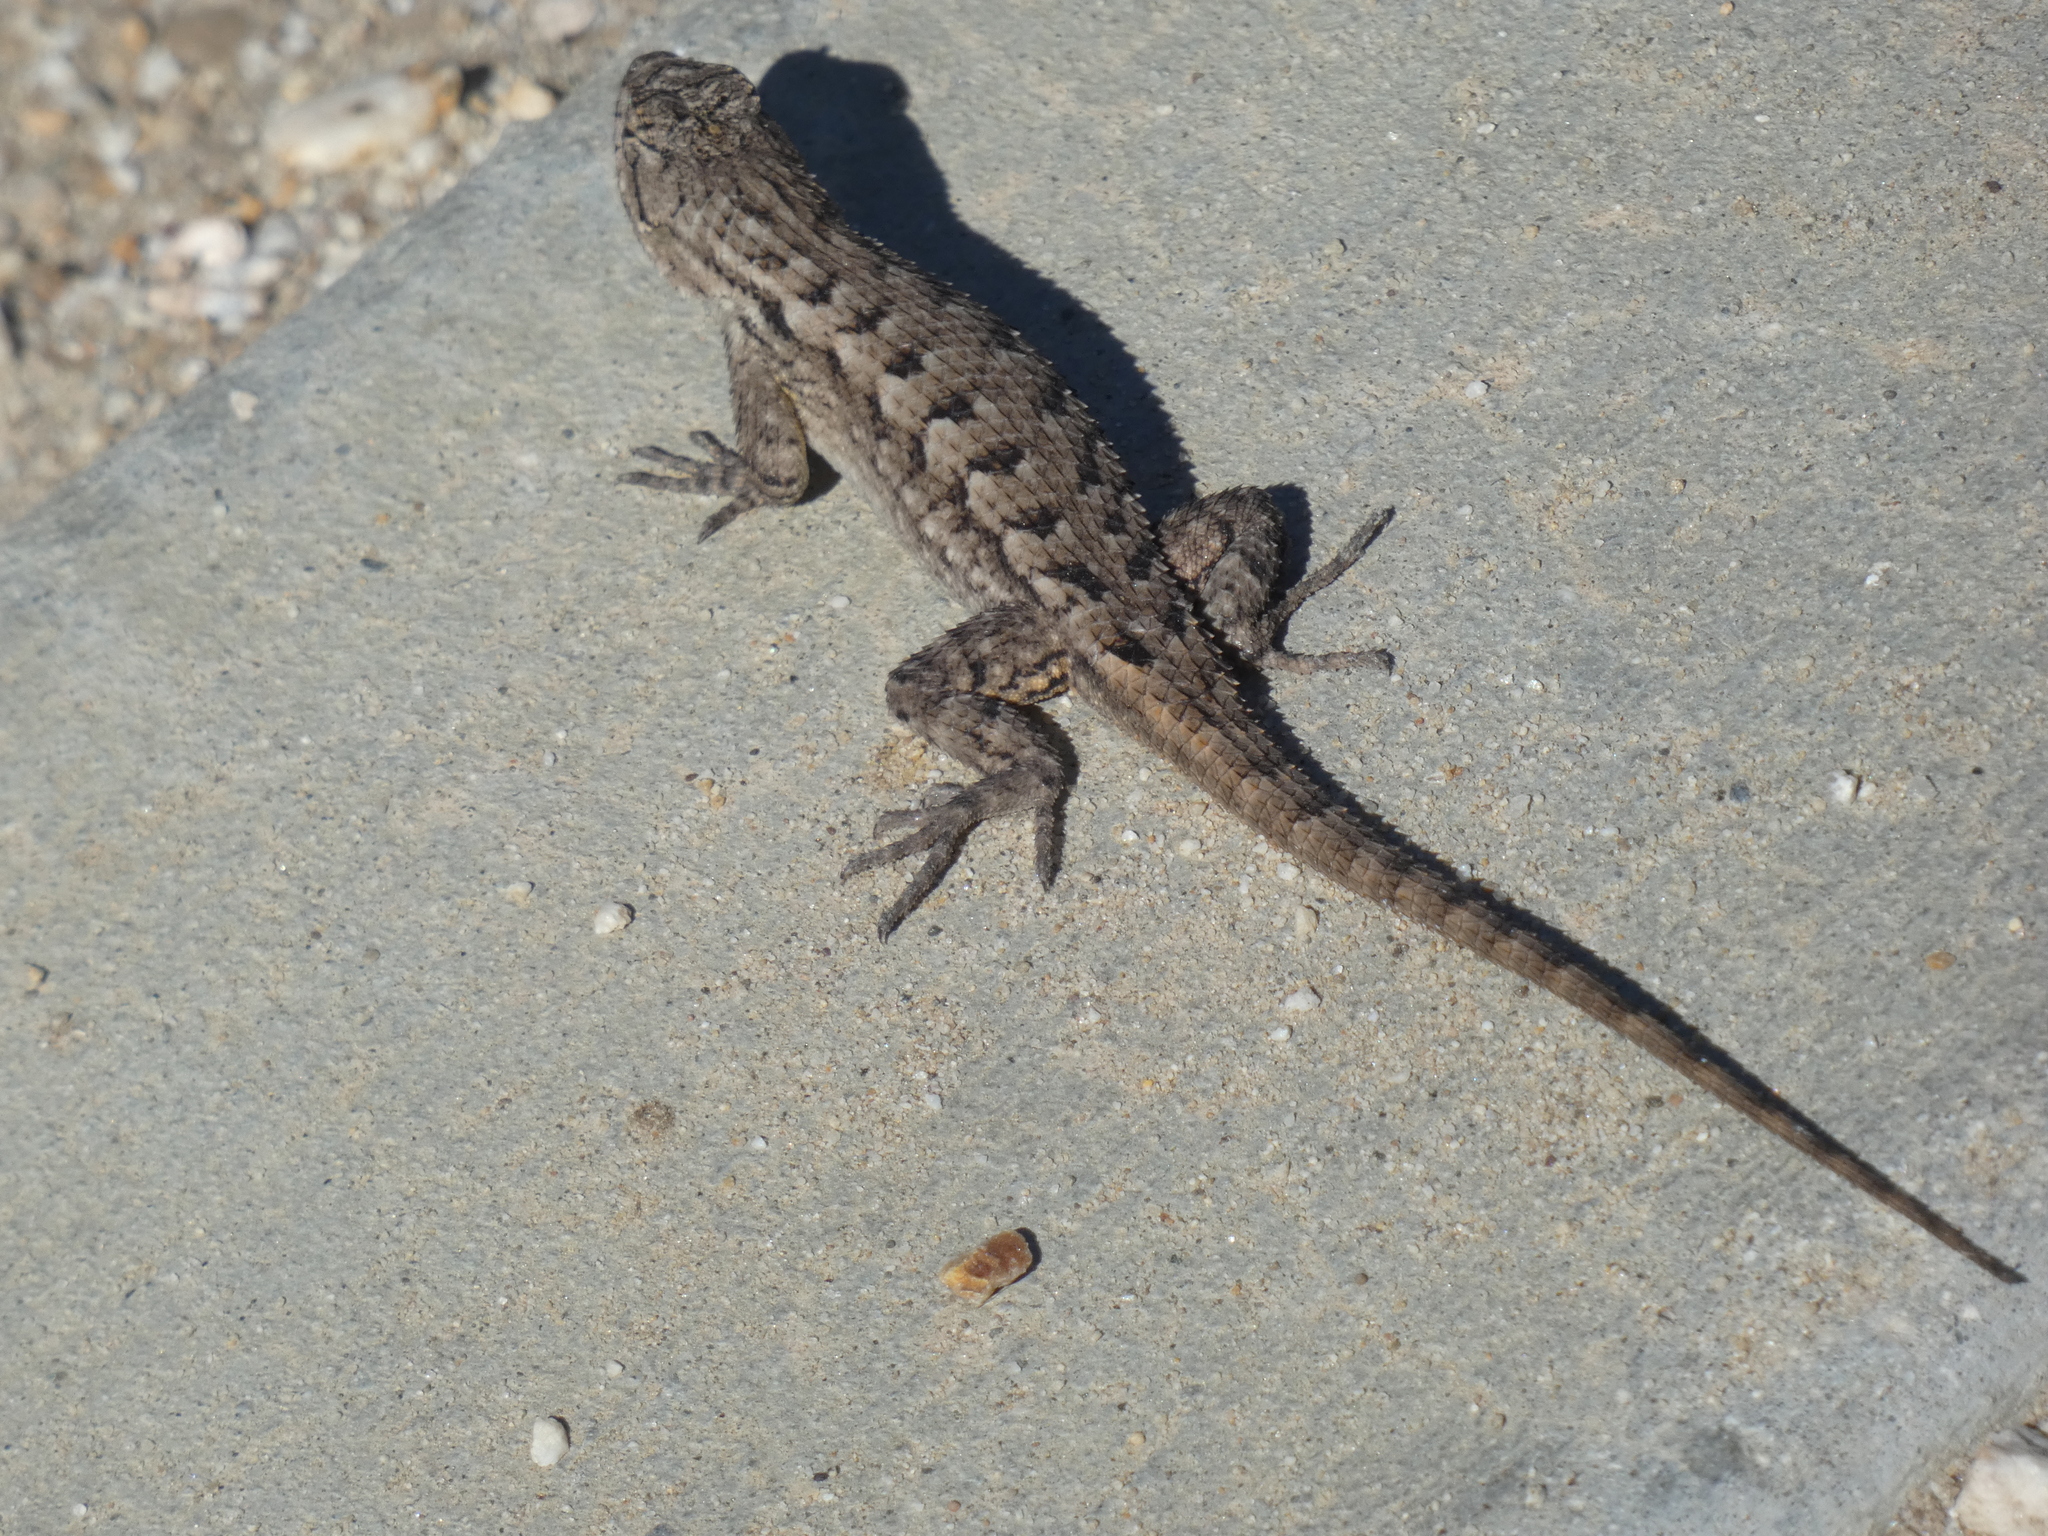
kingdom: Animalia
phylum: Chordata
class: Squamata
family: Phrynosomatidae
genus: Sceloporus
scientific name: Sceloporus occidentalis
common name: Western fence lizard
